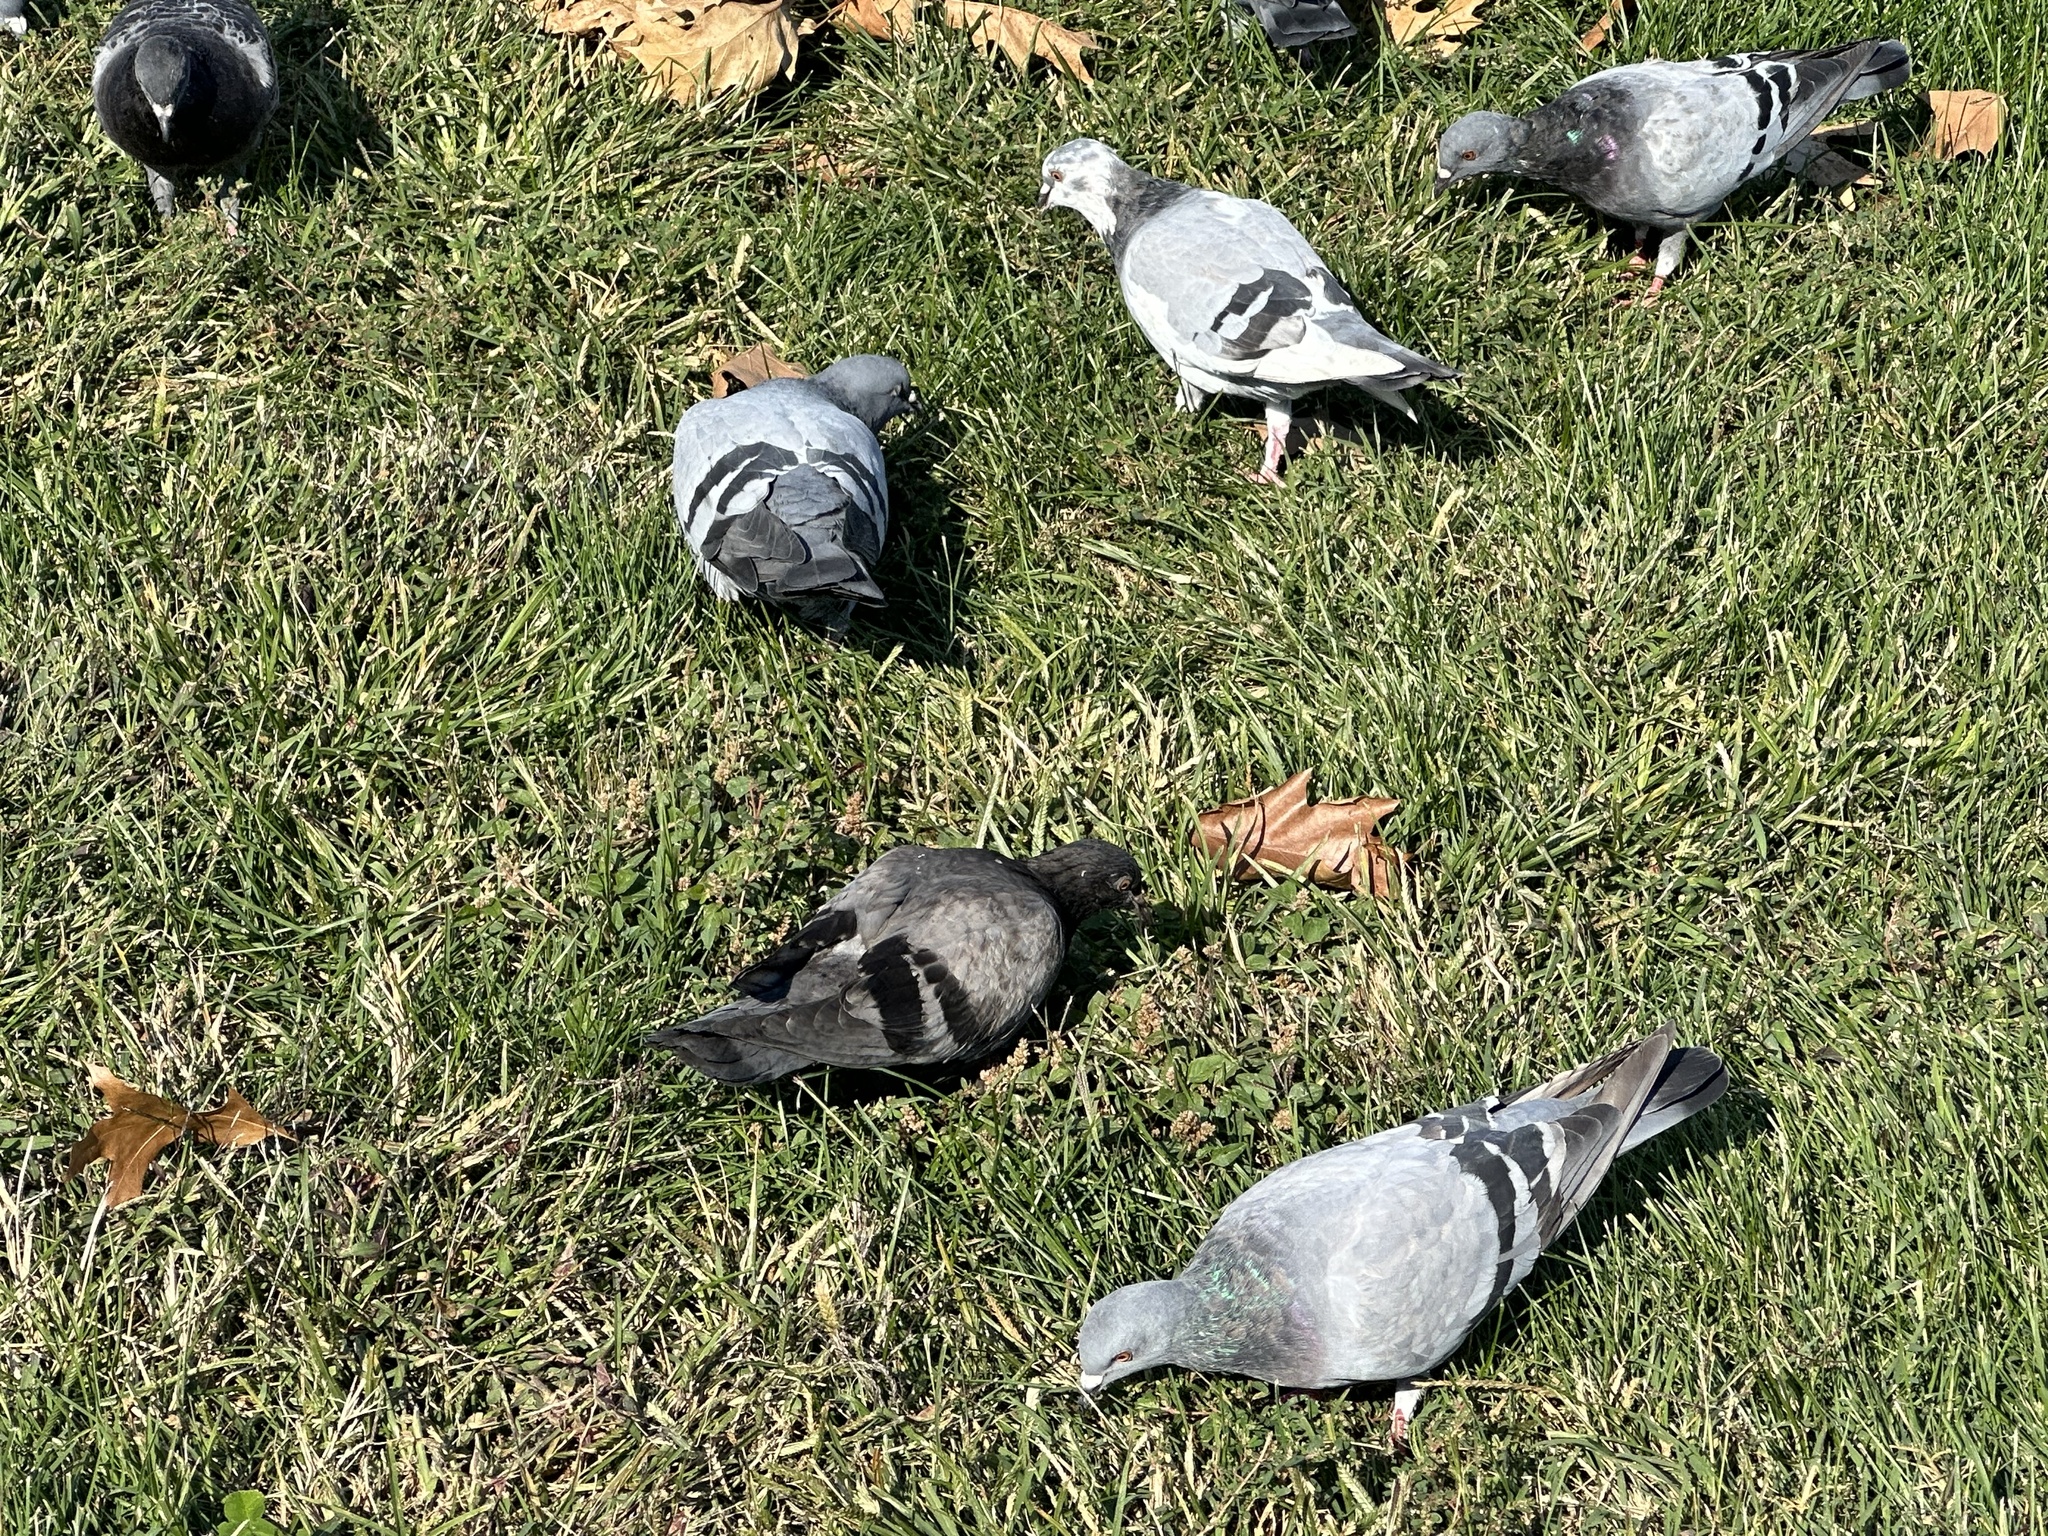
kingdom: Animalia
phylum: Chordata
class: Aves
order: Columbiformes
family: Columbidae
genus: Columba
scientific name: Columba livia
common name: Rock pigeon
